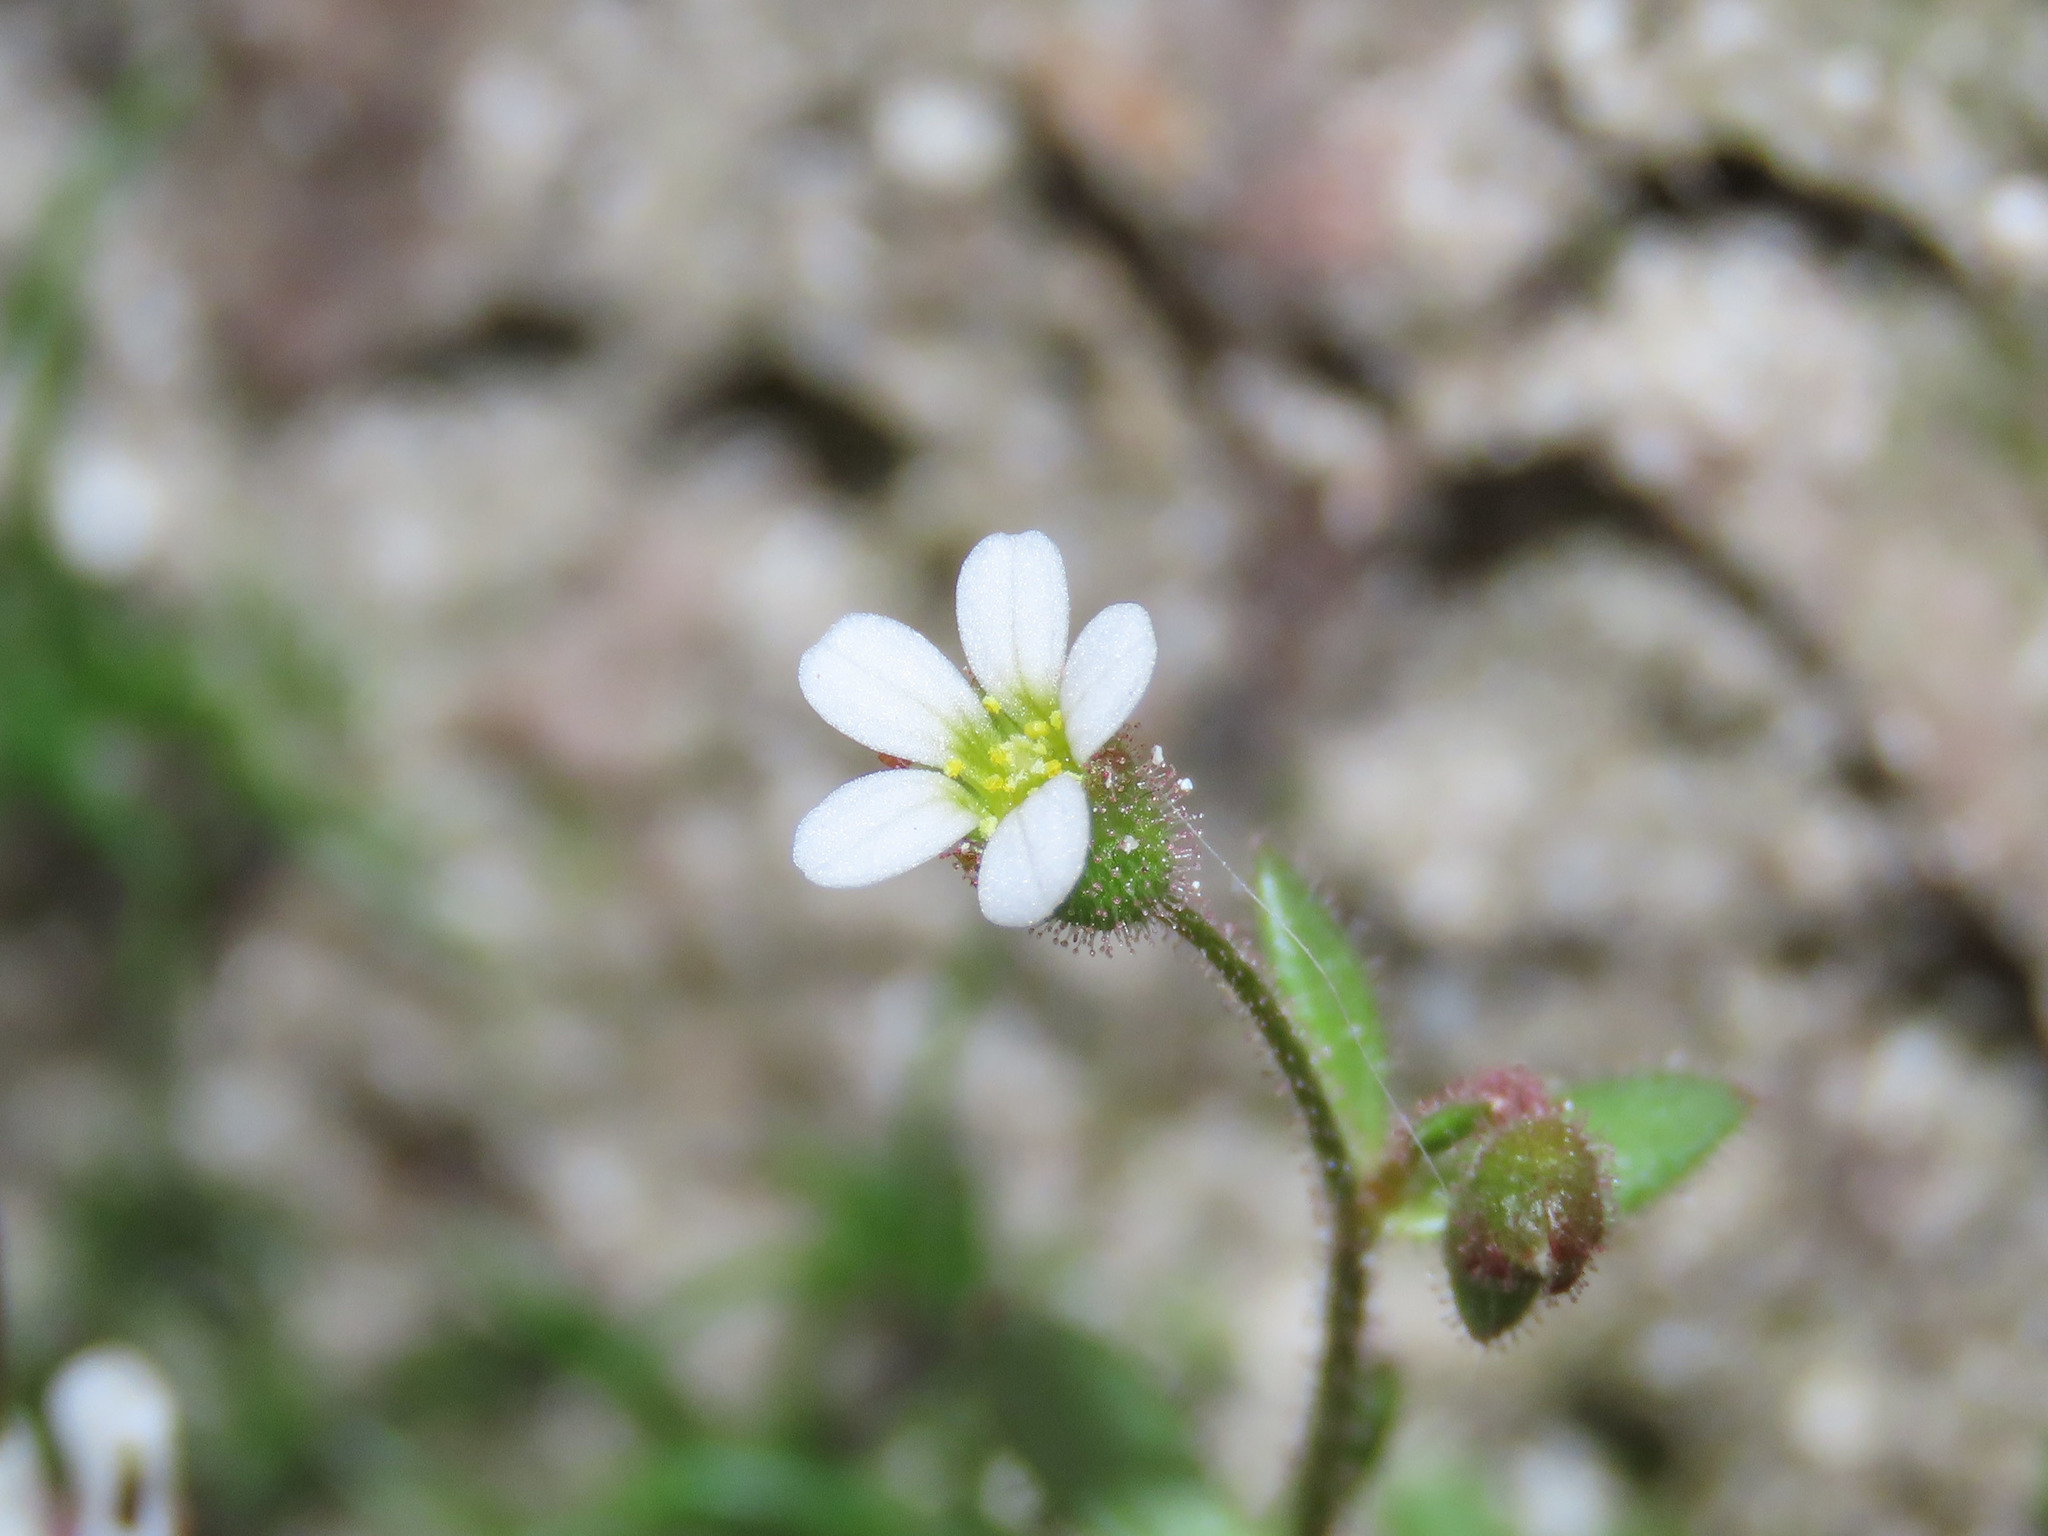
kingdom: Plantae
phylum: Tracheophyta
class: Magnoliopsida
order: Saxifragales
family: Saxifragaceae
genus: Saxifraga
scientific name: Saxifraga tridactylites
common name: Rue-leaved saxifrage
